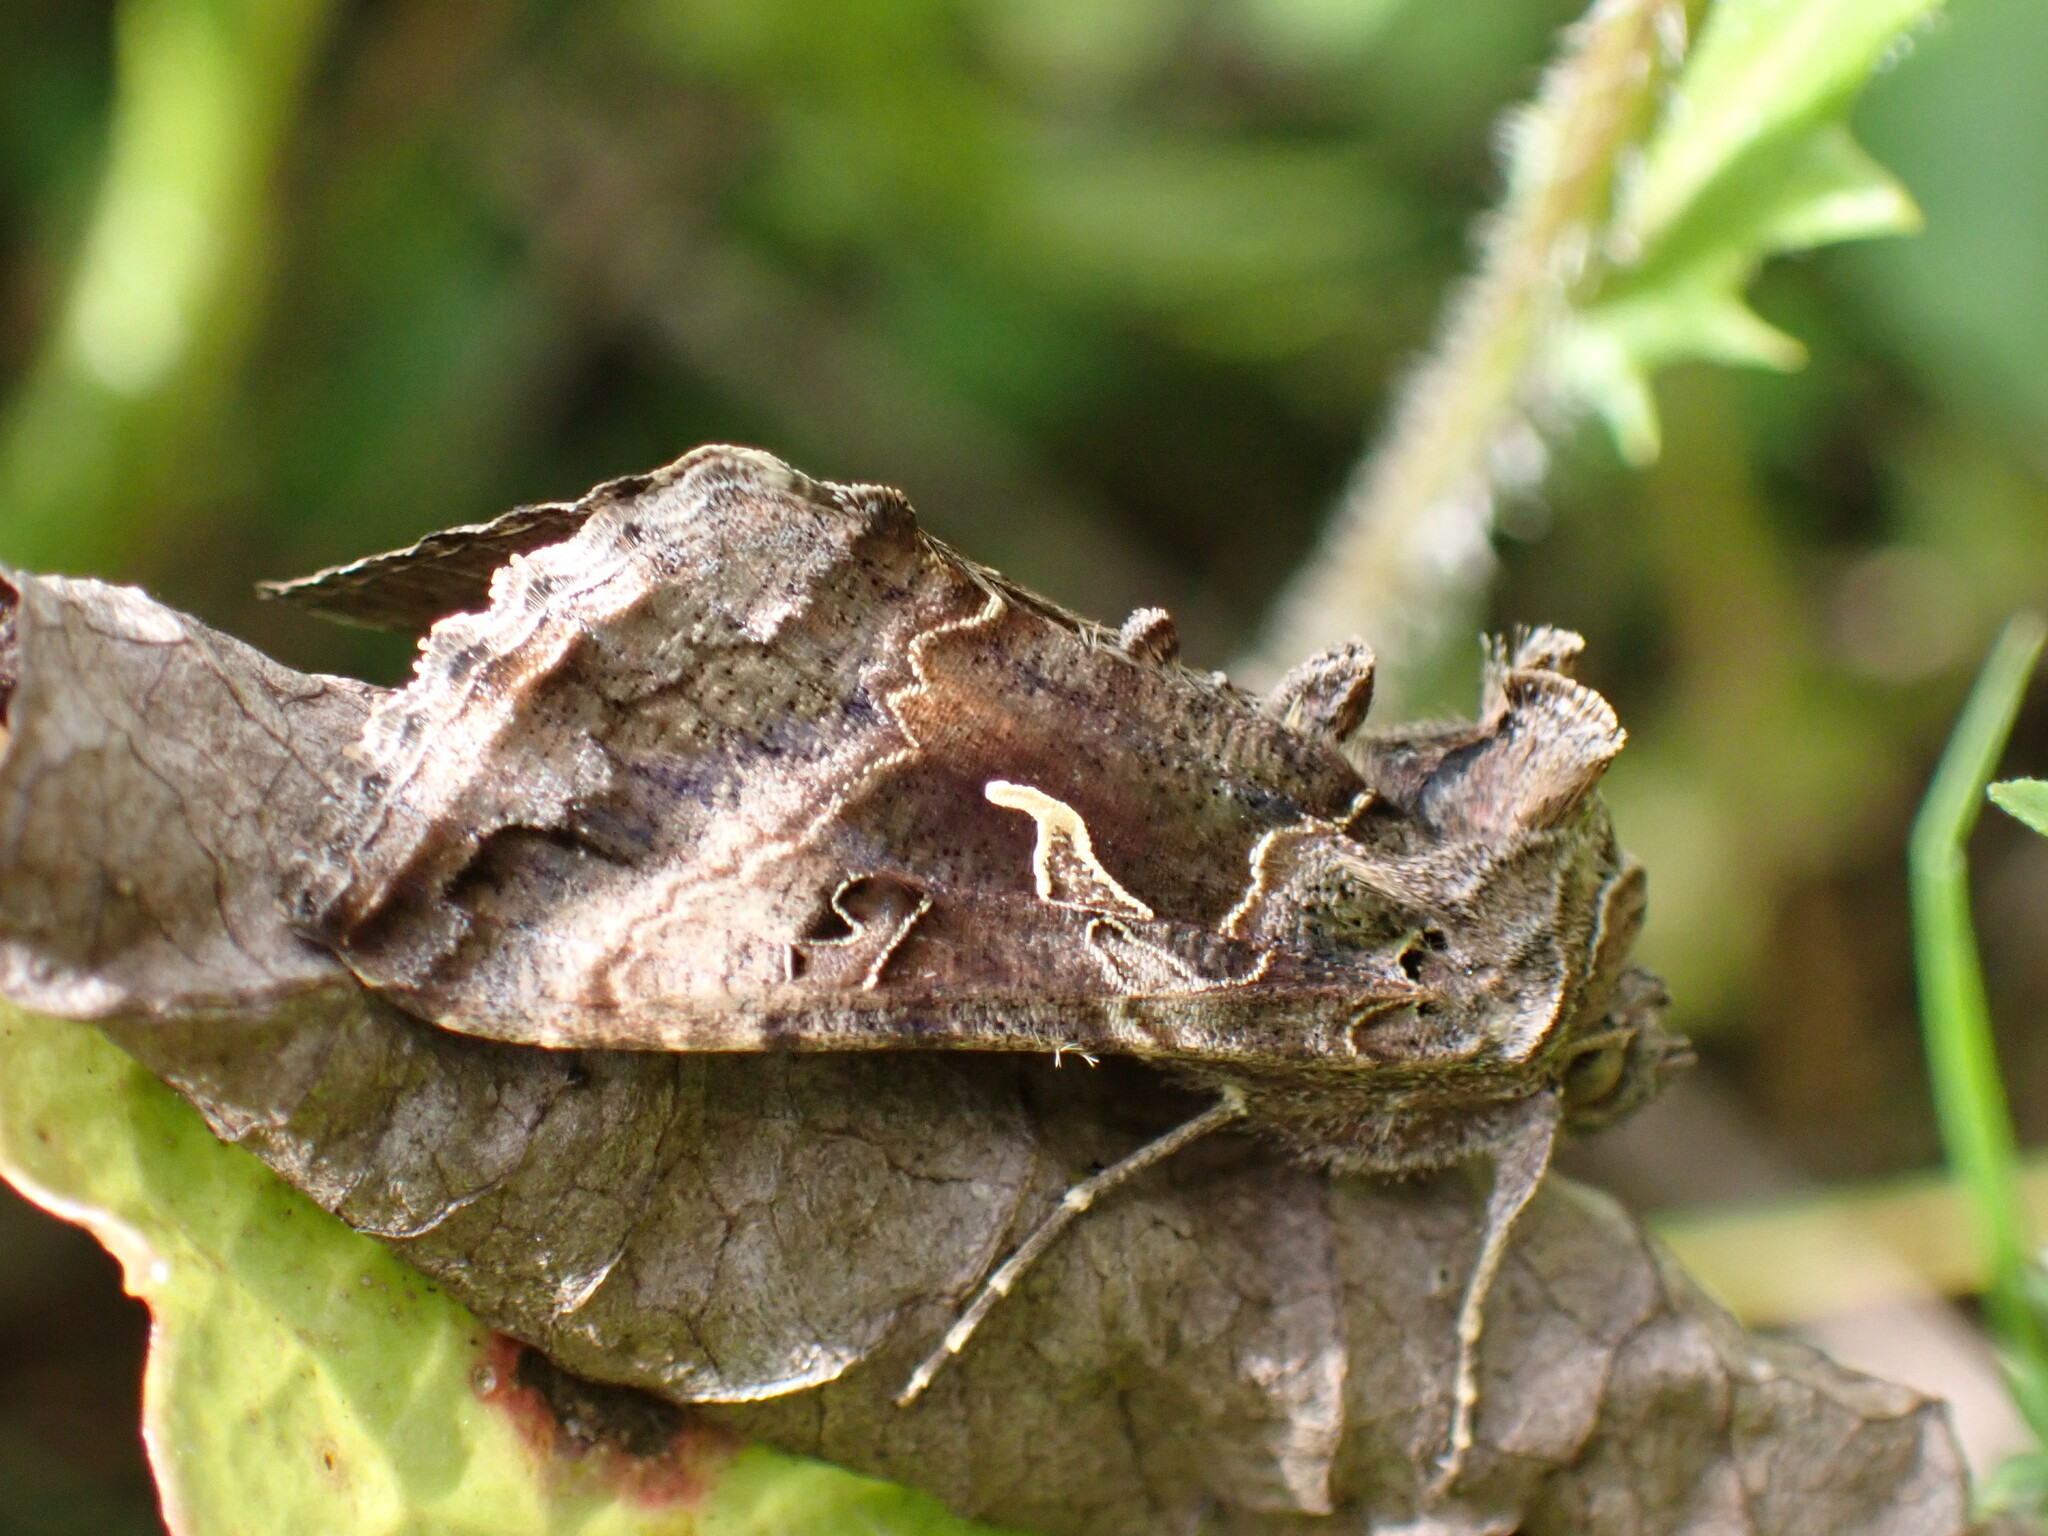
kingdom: Animalia
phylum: Arthropoda
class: Insecta
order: Lepidoptera
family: Noctuidae
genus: Autographa
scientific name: Autographa gamma
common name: Silver y
